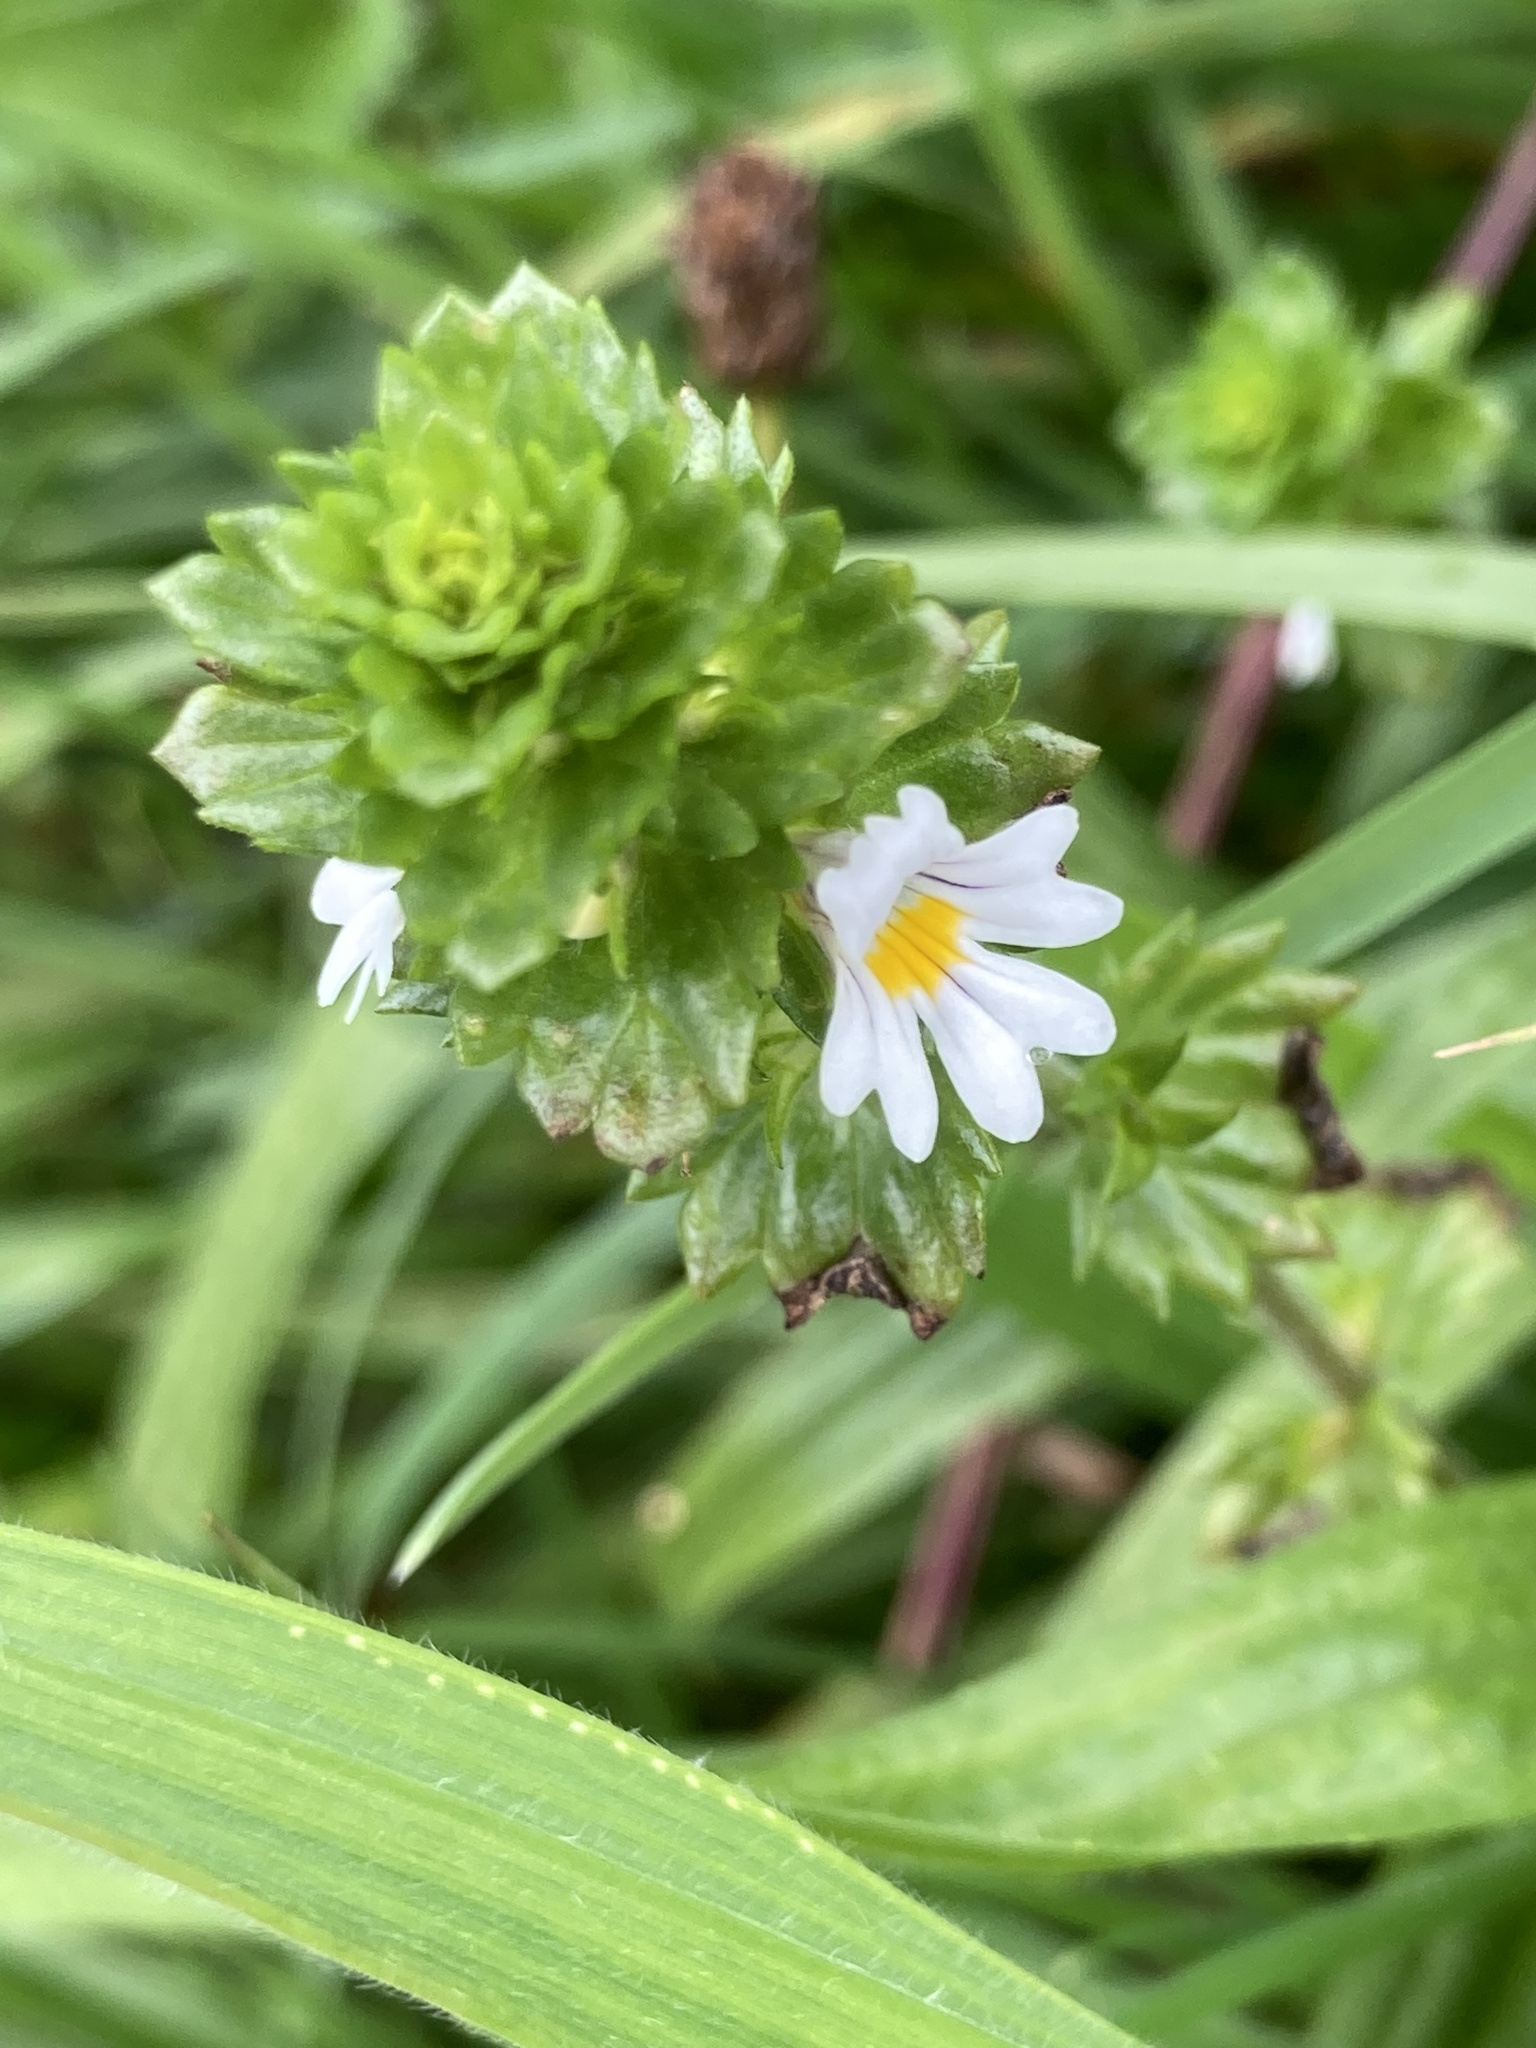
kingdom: Plantae
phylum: Tracheophyta
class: Magnoliopsida
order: Lamiales
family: Orobanchaceae
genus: Euphrasia
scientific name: Euphrasia nemorosa
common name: Common eyebright
